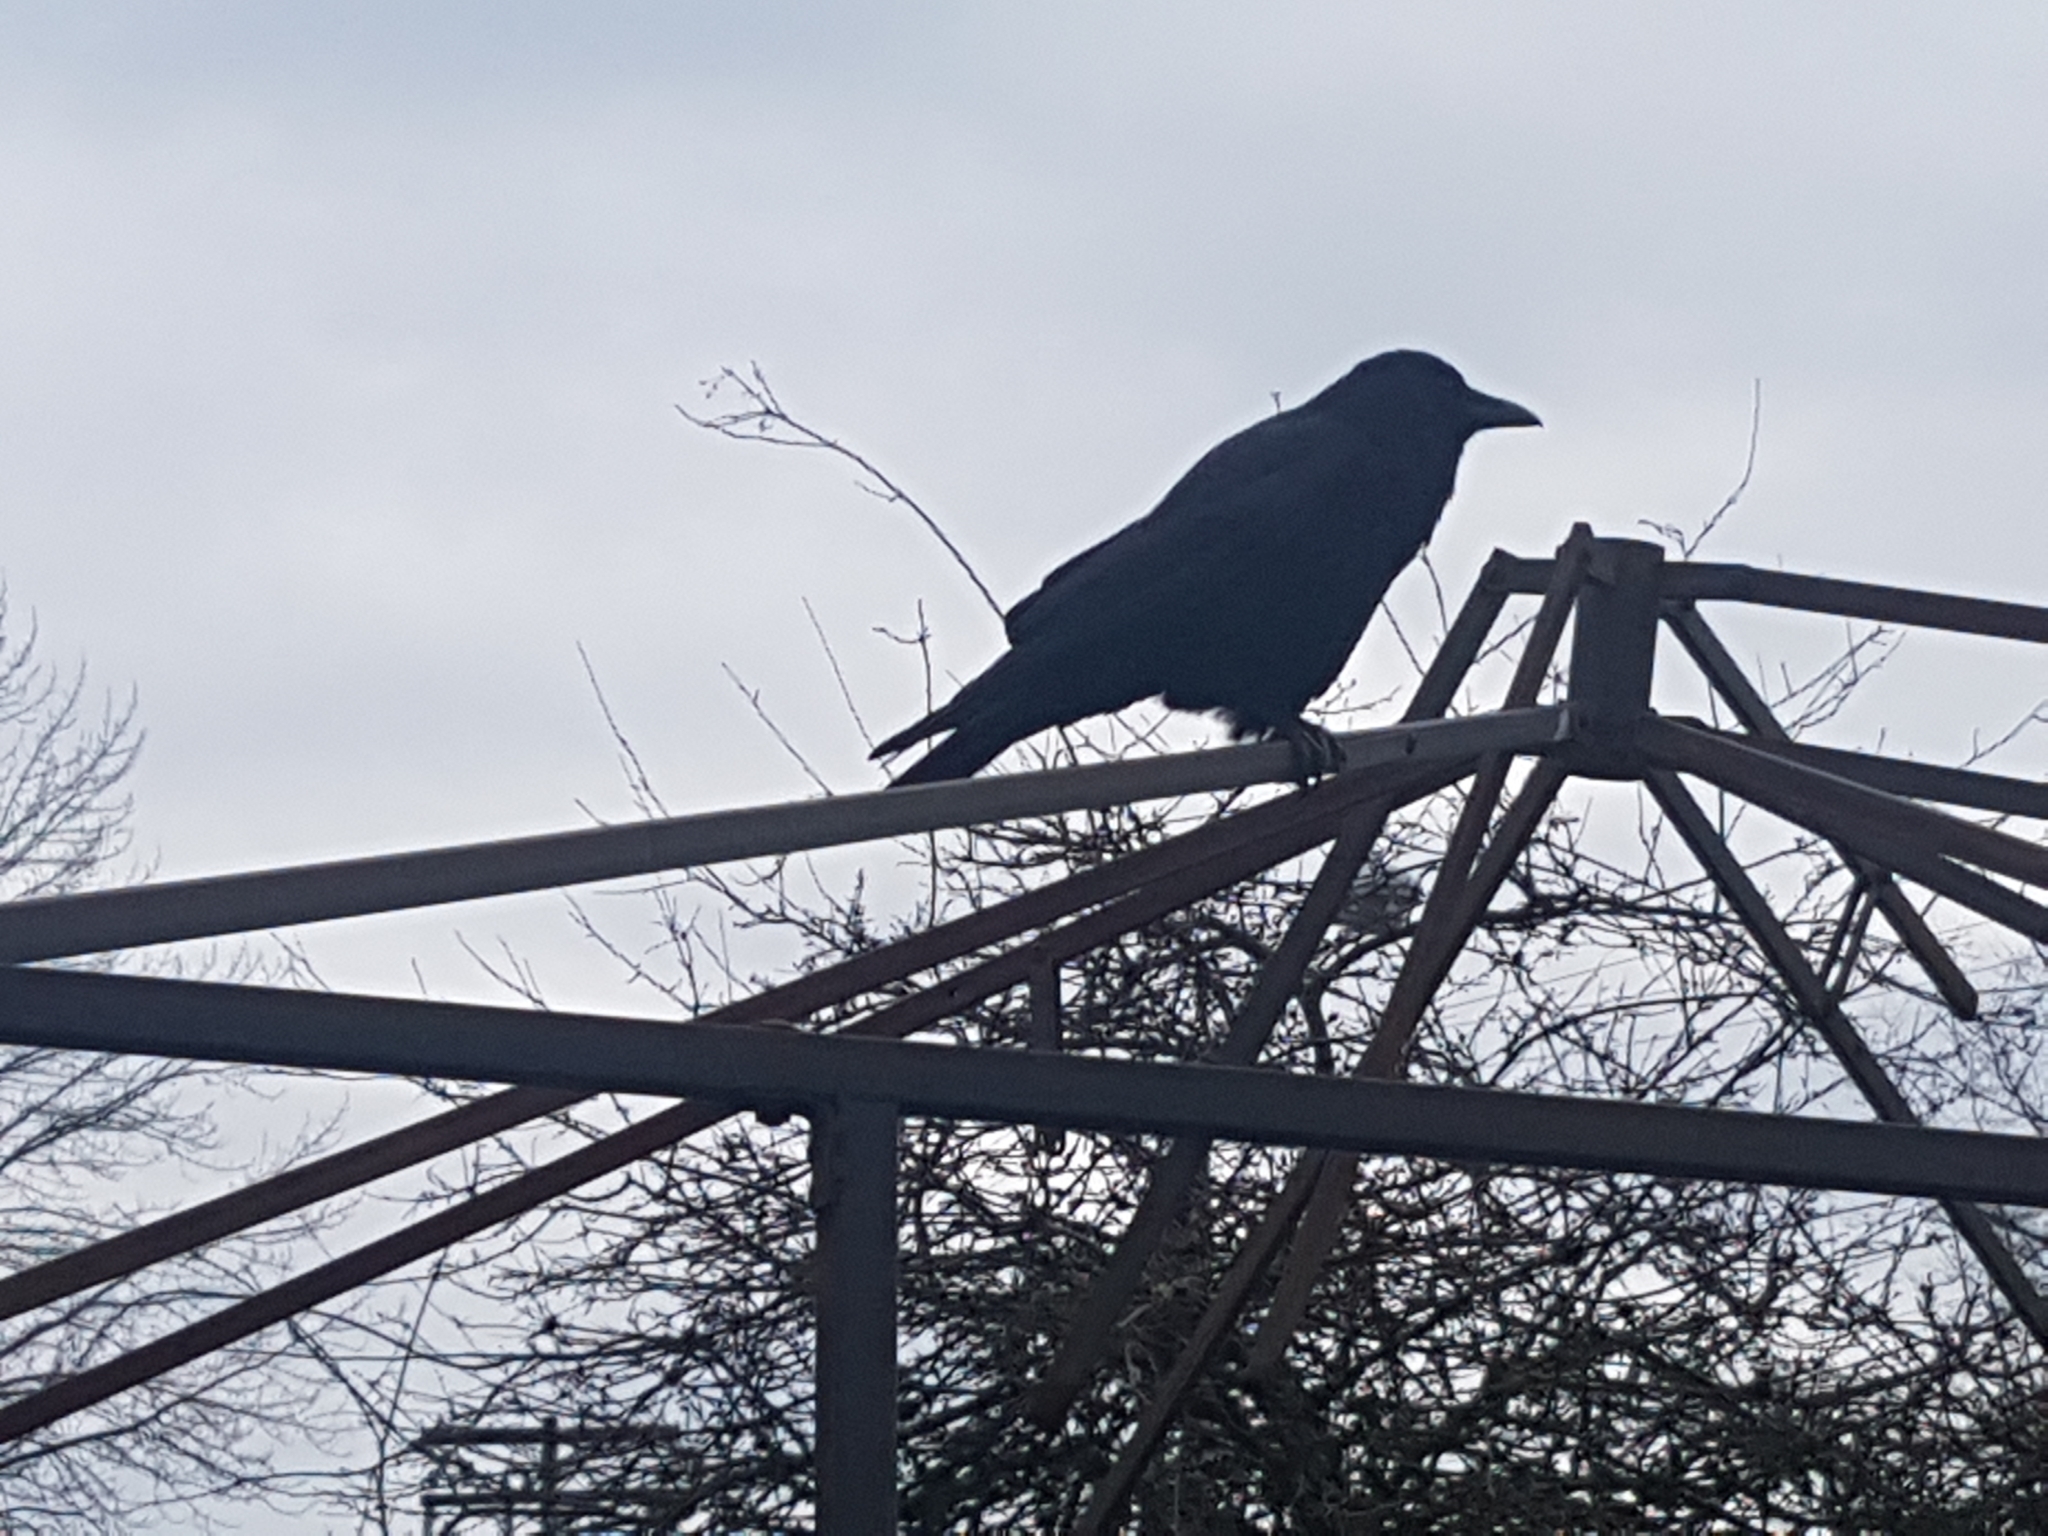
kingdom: Animalia
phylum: Chordata
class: Aves
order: Passeriformes
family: Corvidae
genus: Corvus
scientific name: Corvus brachyrhynchos
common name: American crow
